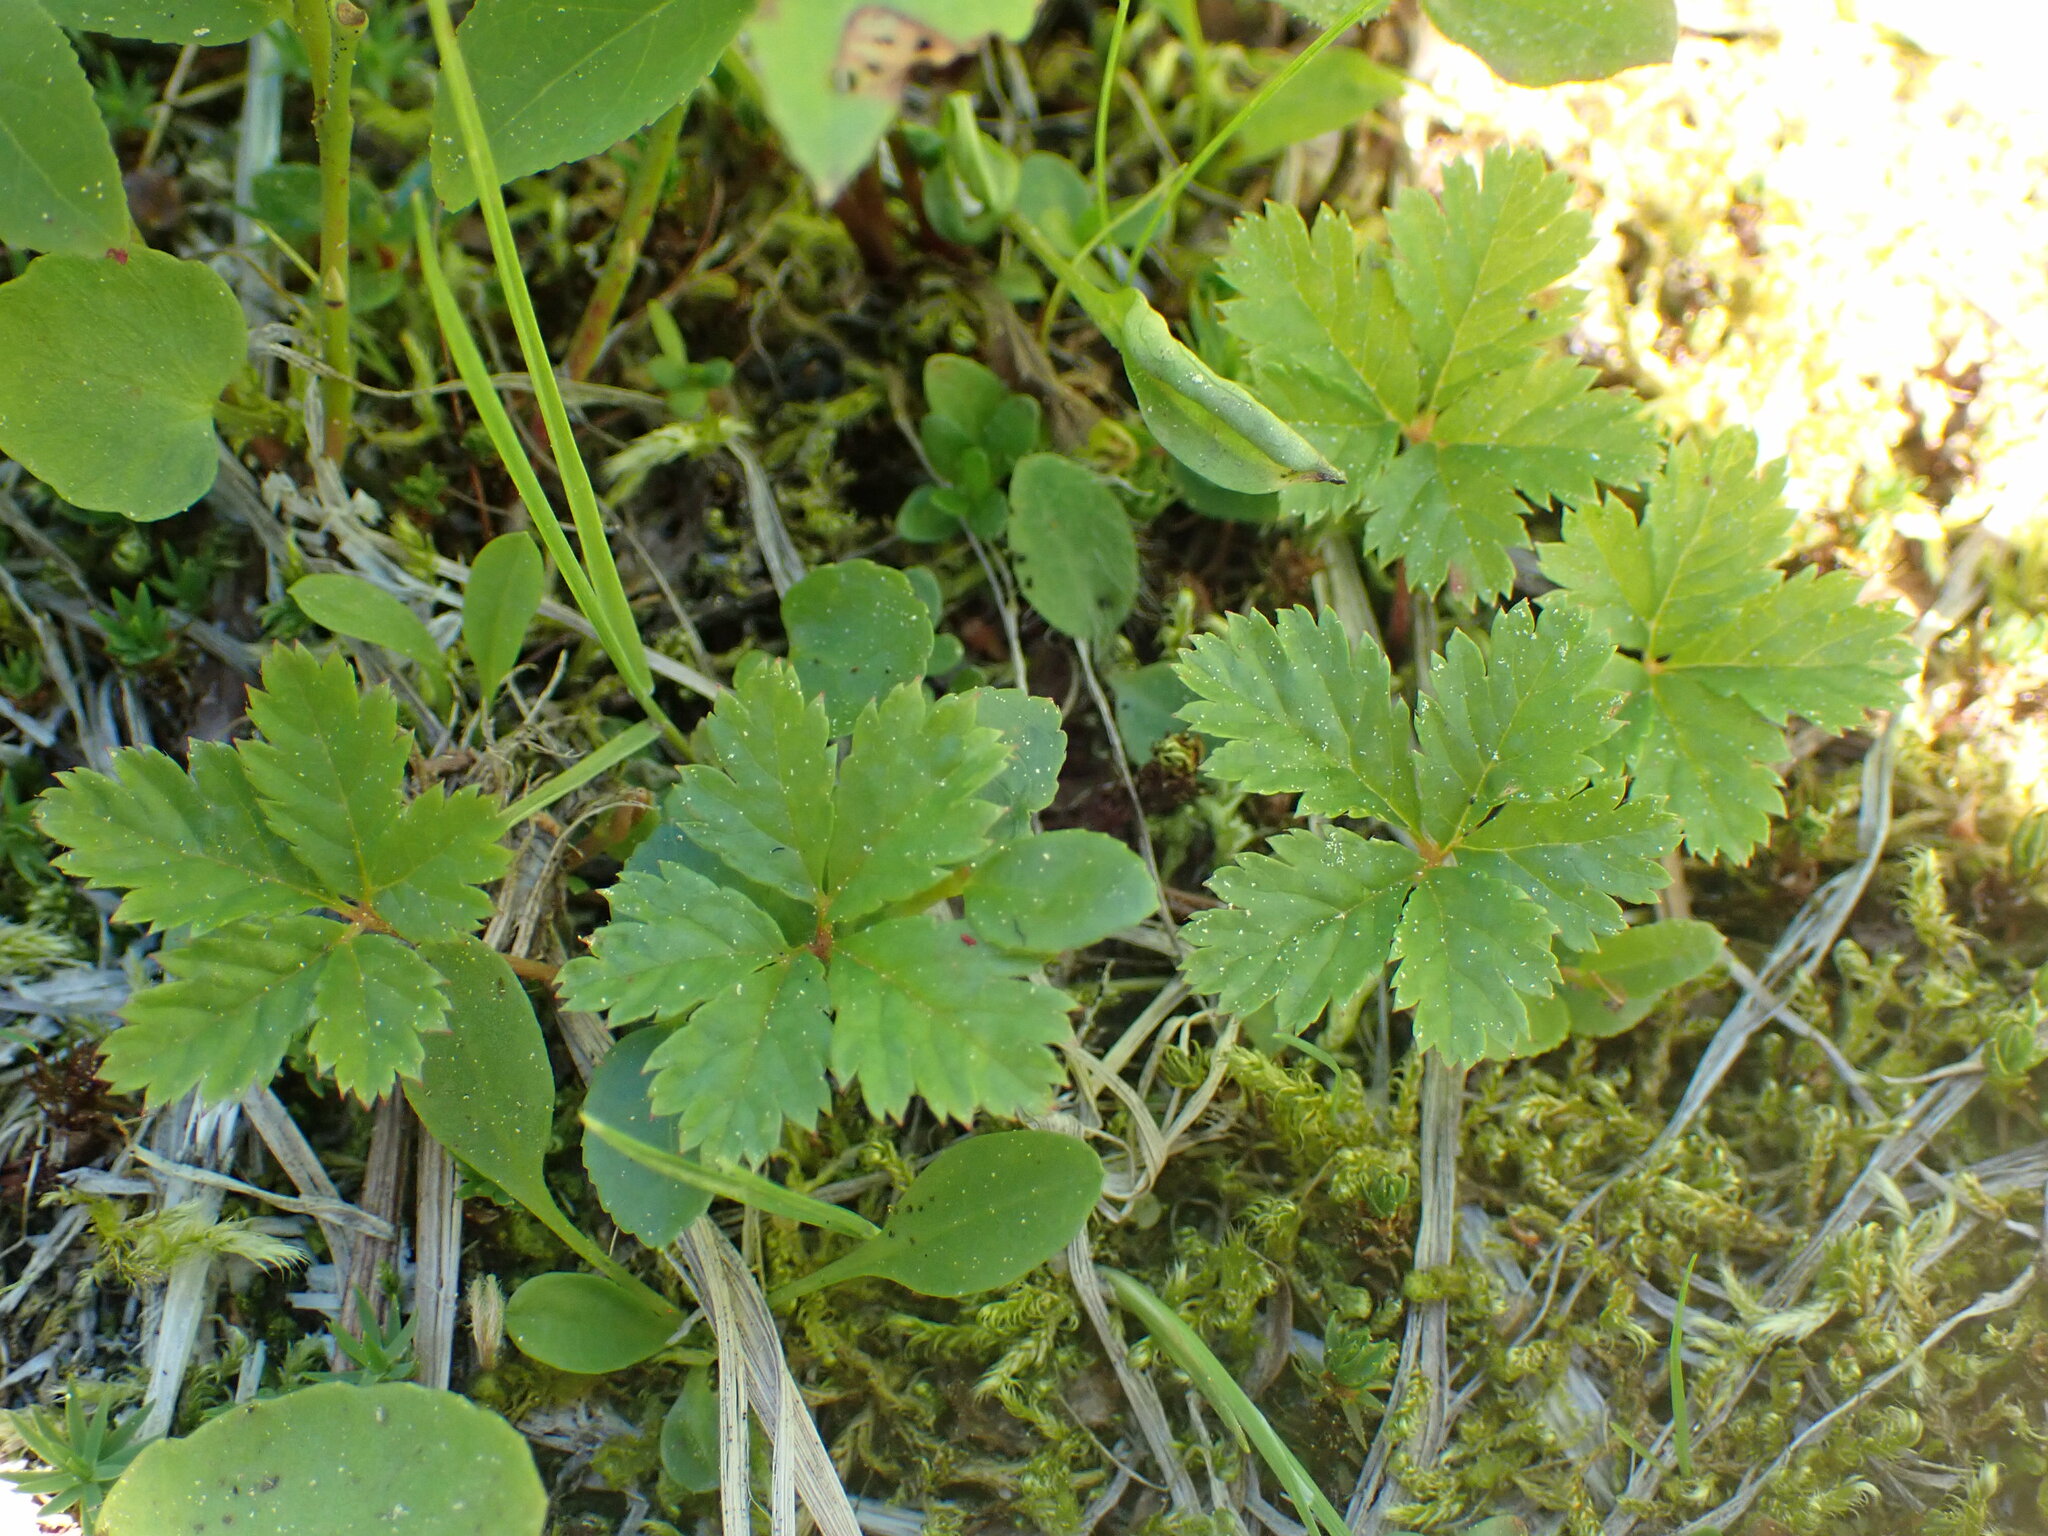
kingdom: Plantae
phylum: Tracheophyta
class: Magnoliopsida
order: Rosales
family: Rosaceae
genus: Rubus
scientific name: Rubus pedatus
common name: Creeping raspberry
